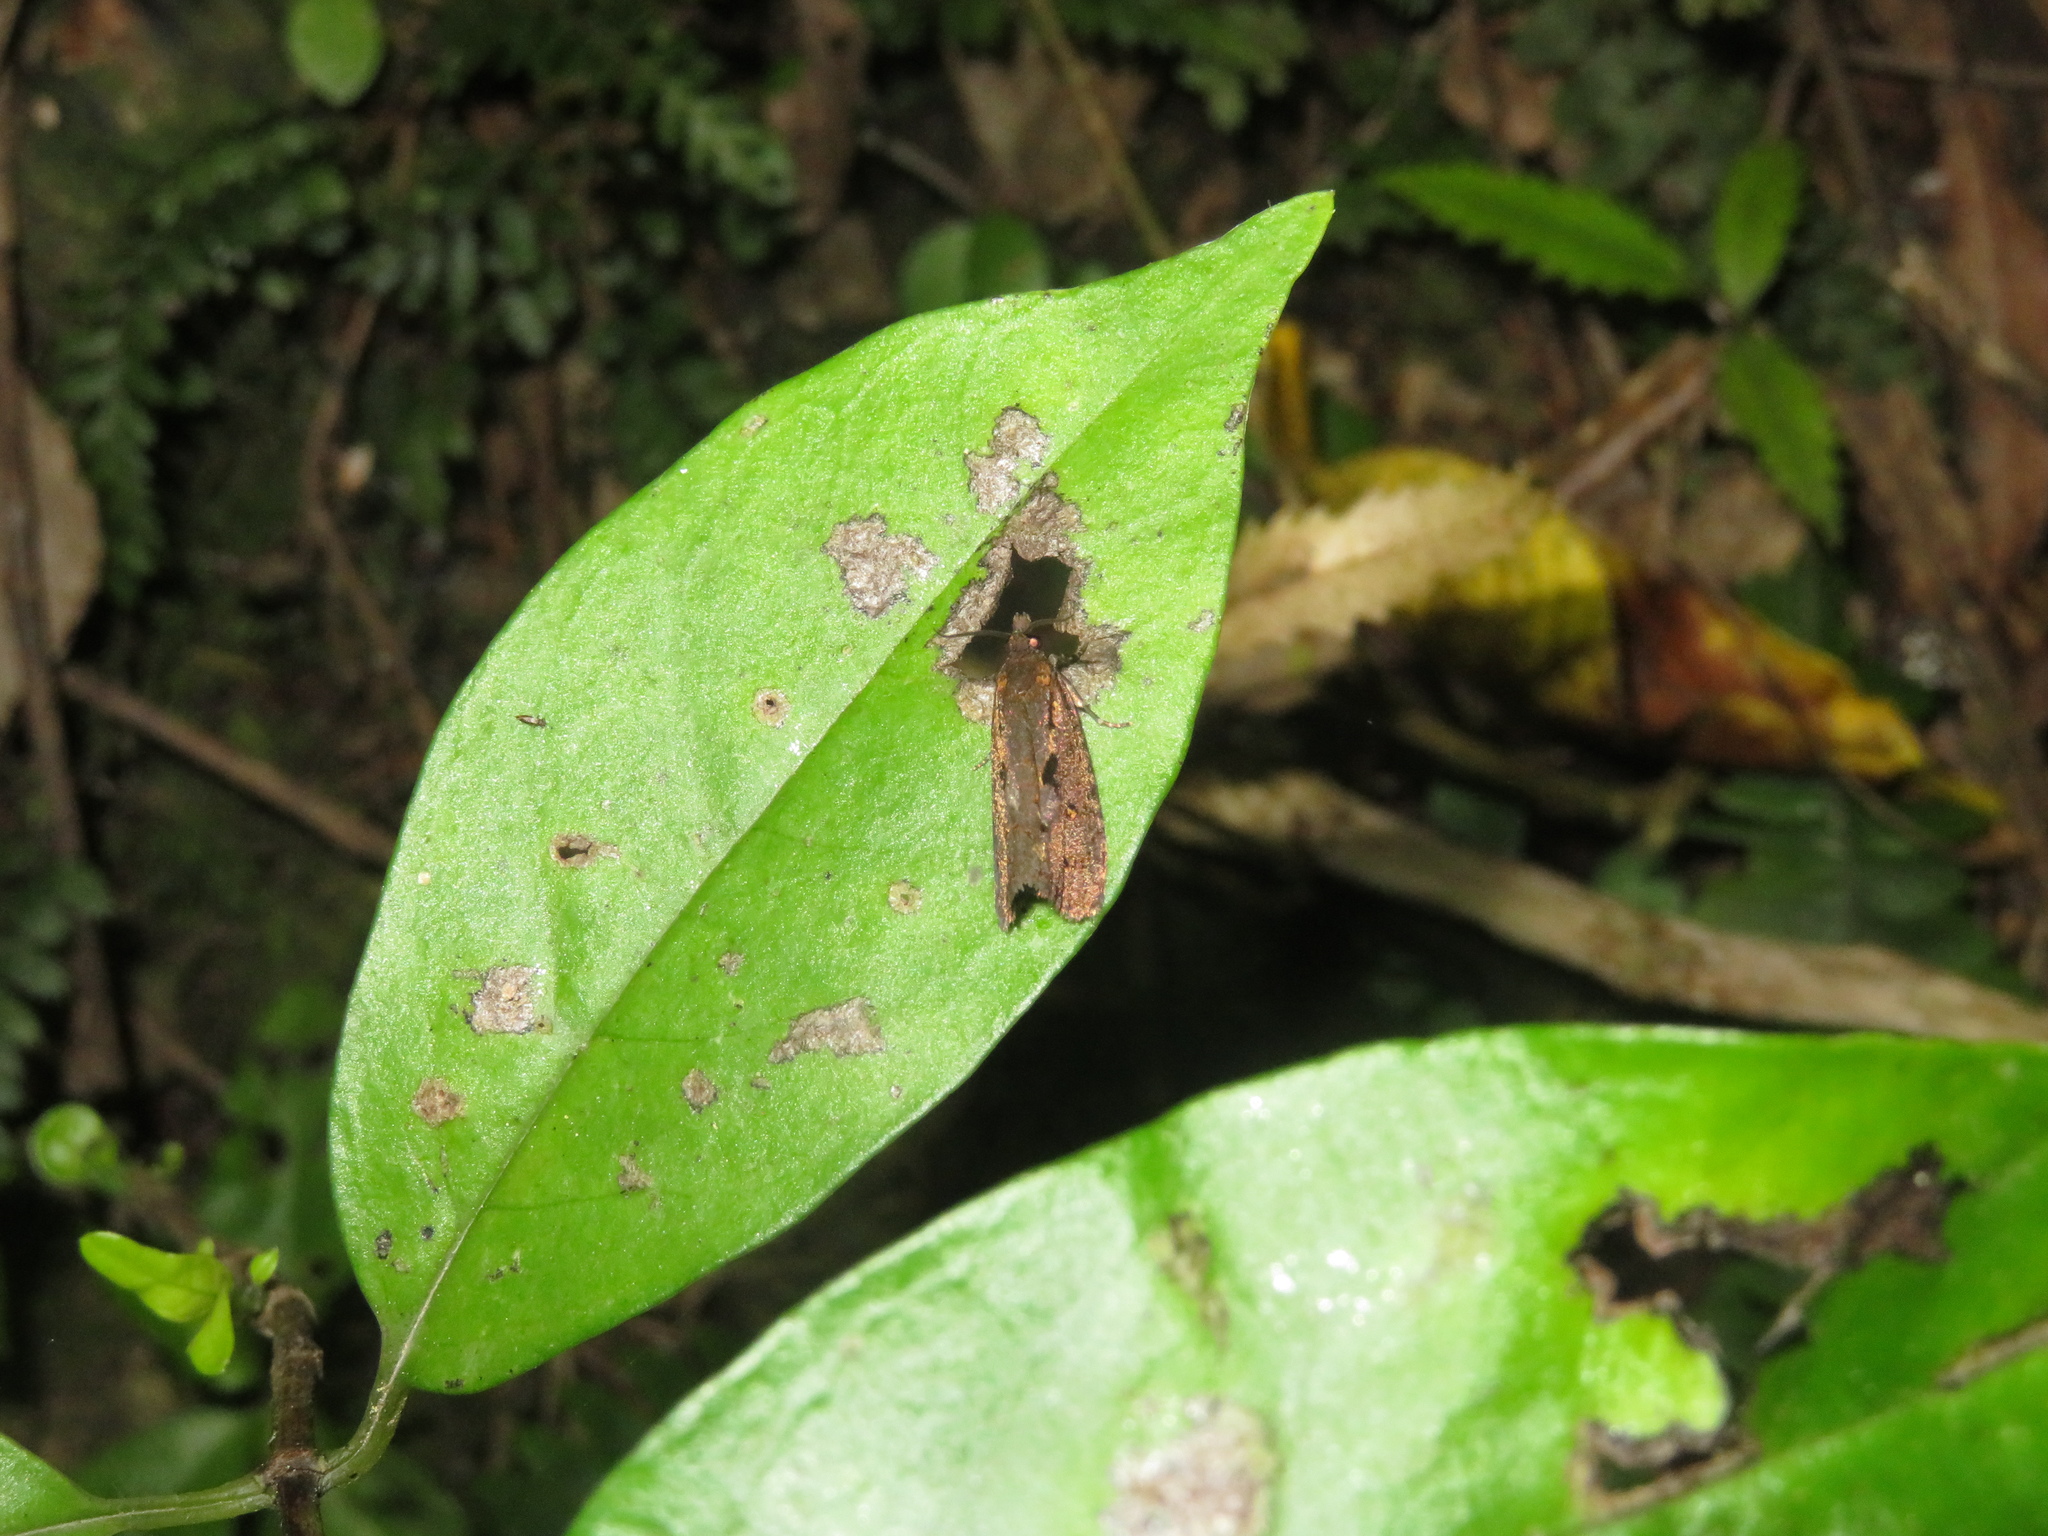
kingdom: Animalia
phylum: Arthropoda
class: Insecta
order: Lepidoptera
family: Tortricidae
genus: Cryptaspasma
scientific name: Cryptaspasma querula
